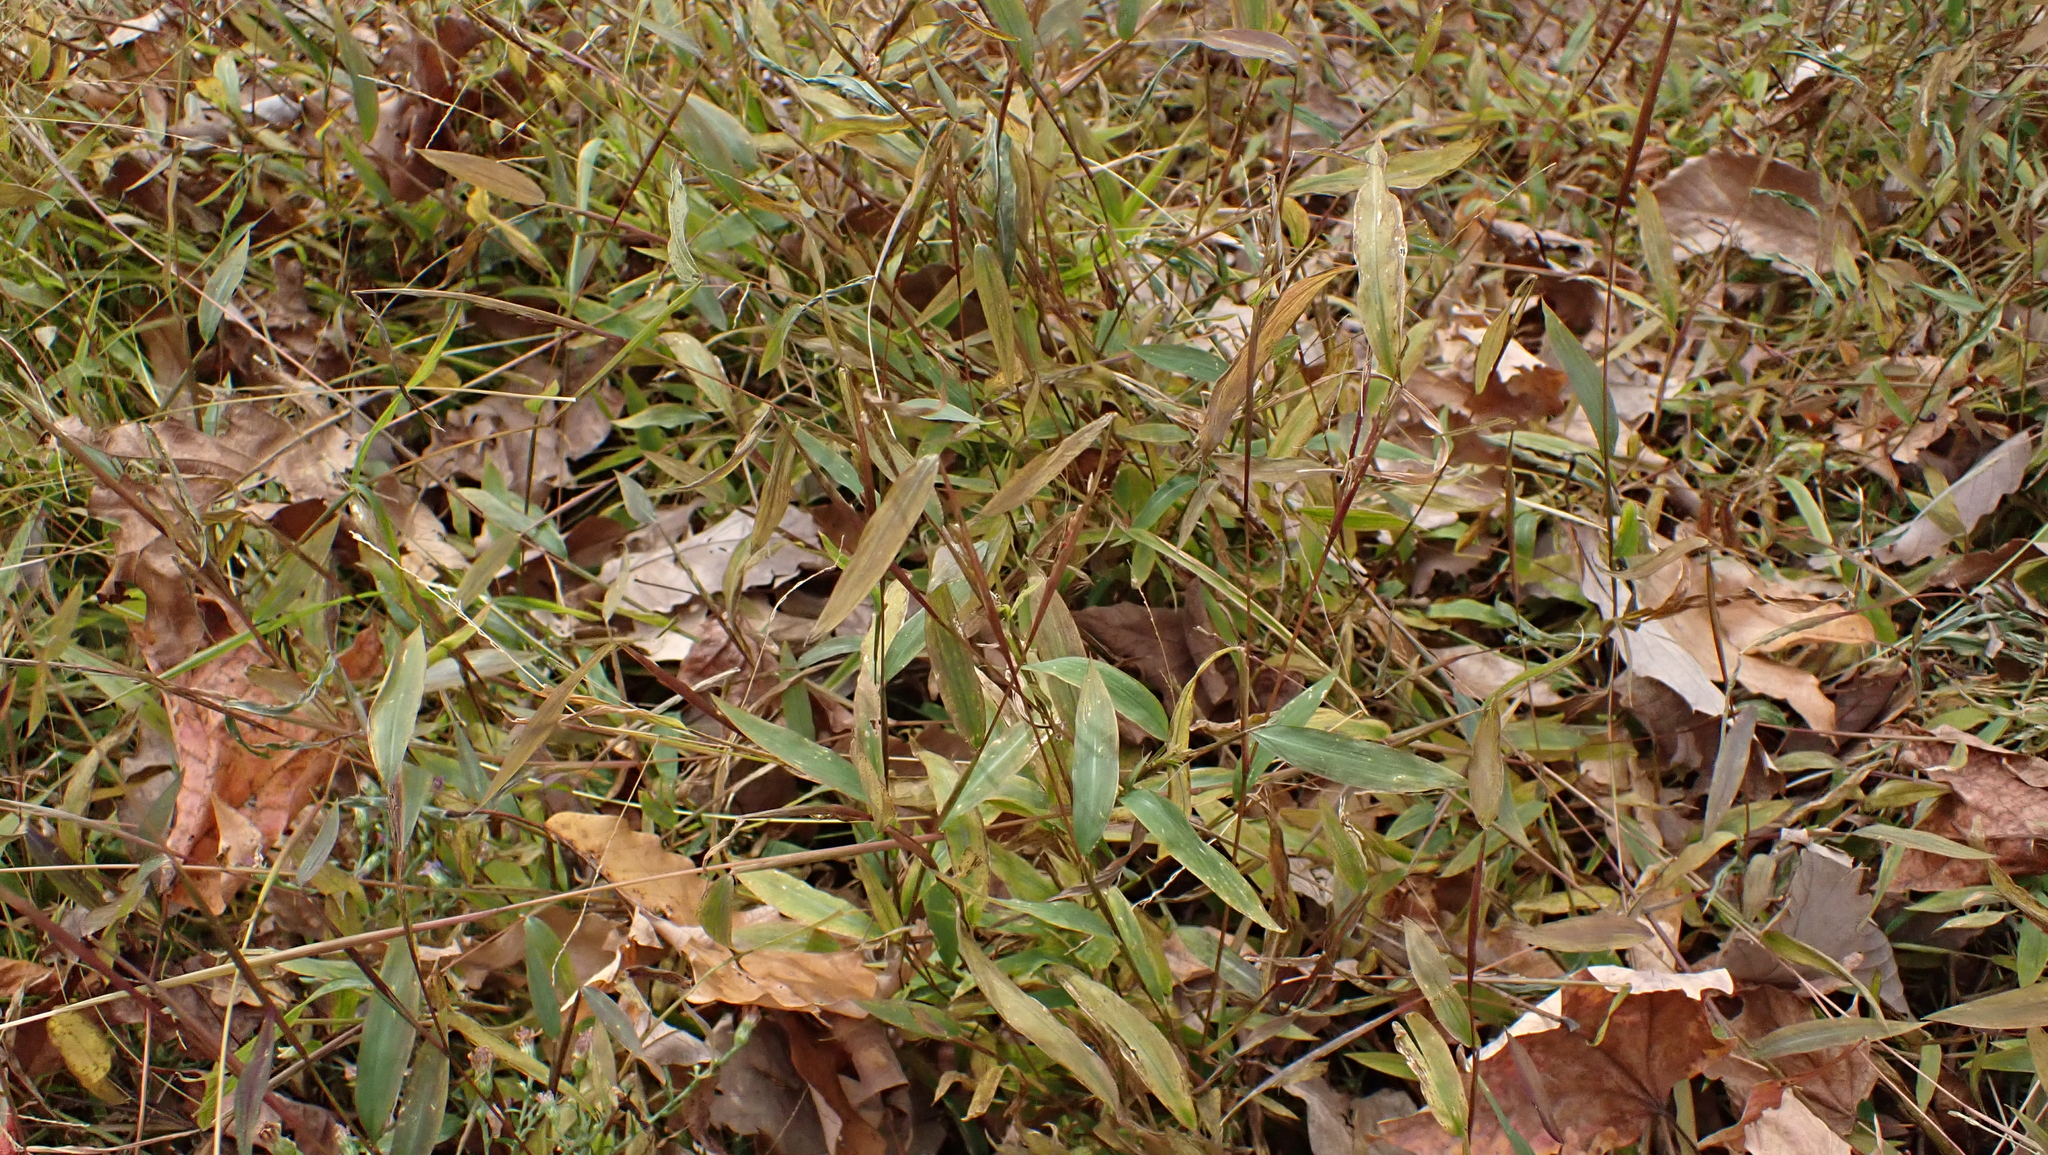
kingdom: Plantae
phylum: Tracheophyta
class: Liliopsida
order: Poales
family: Poaceae
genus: Microstegium
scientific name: Microstegium vimineum
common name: Japanese stiltgrass
